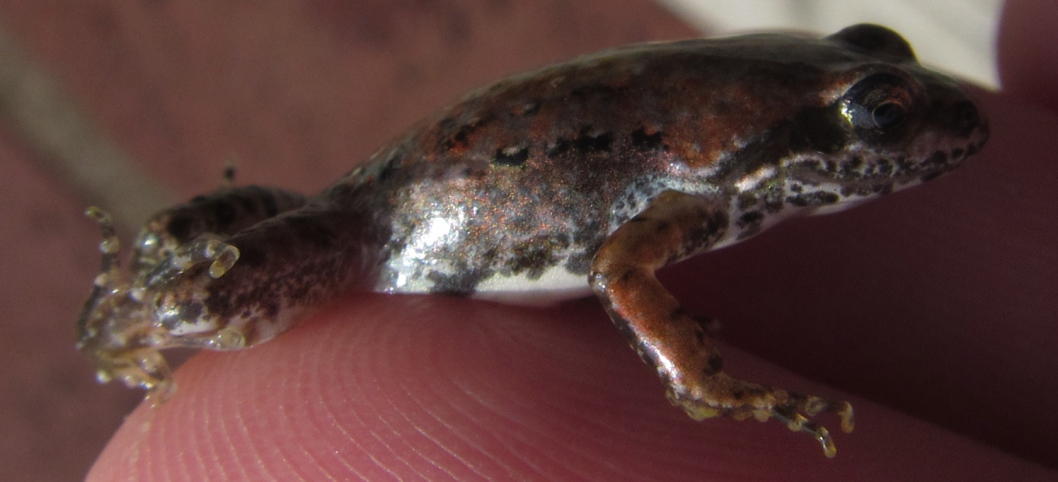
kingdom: Animalia
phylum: Chordata
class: Amphibia
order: Anura
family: Pyxicephalidae
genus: Cacosternum
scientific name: Cacosternum nanum
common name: Bronze dainty frog
